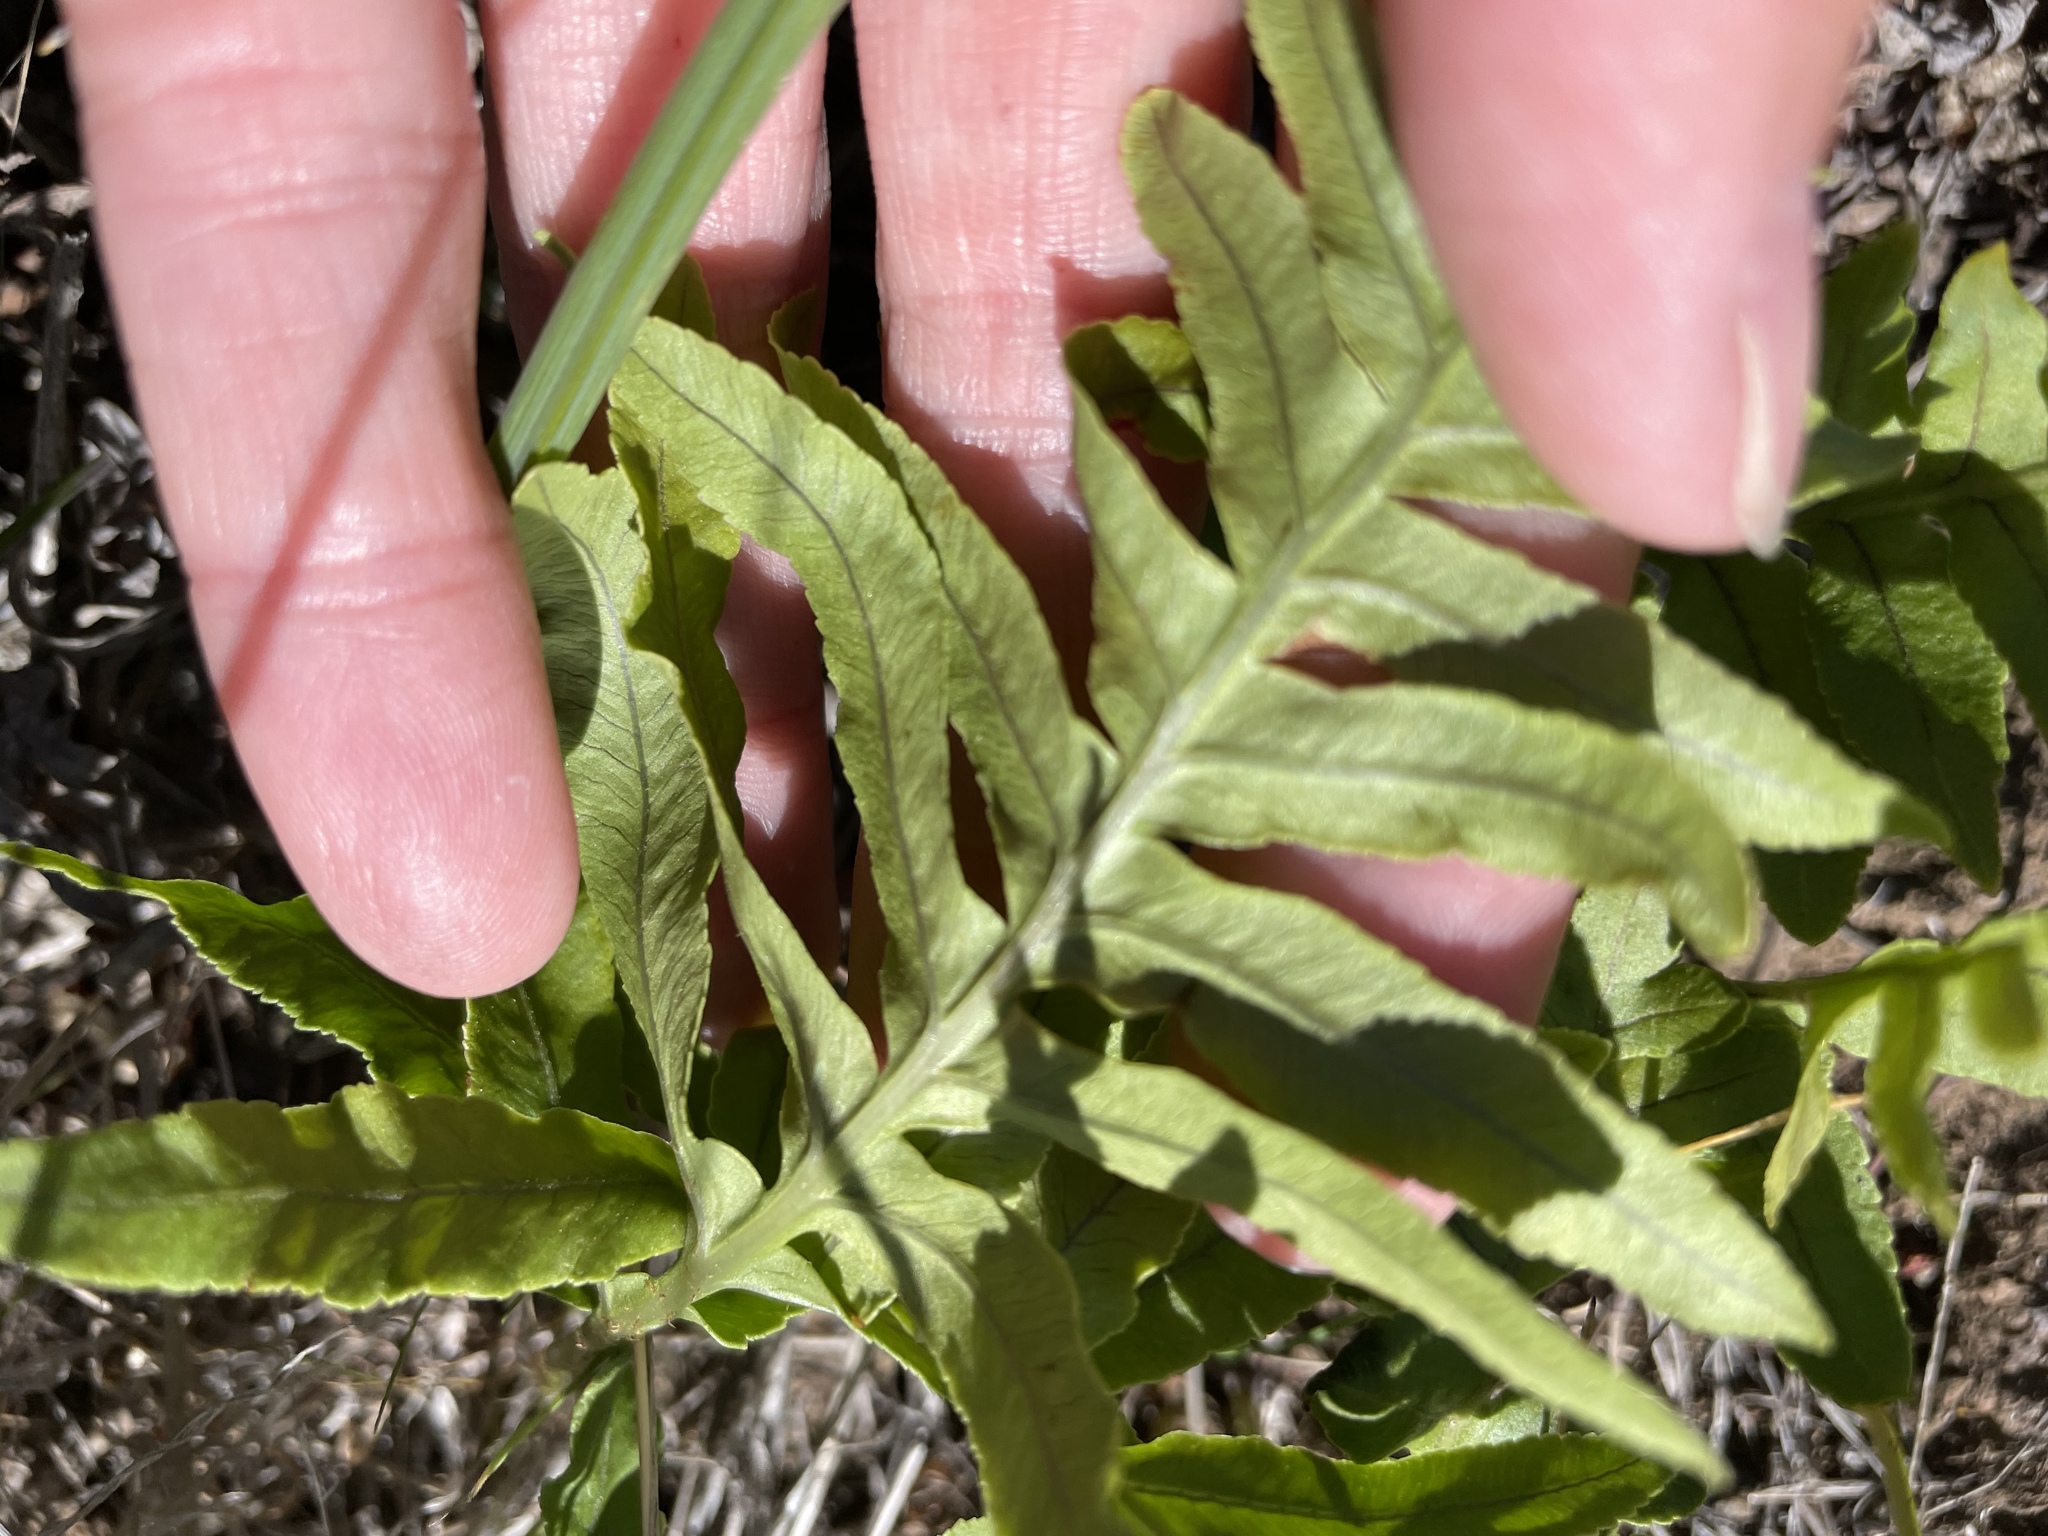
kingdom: Plantae
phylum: Tracheophyta
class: Polypodiopsida
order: Polypodiales
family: Polypodiaceae
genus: Polypodium
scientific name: Polypodium californicum
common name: California polypody
